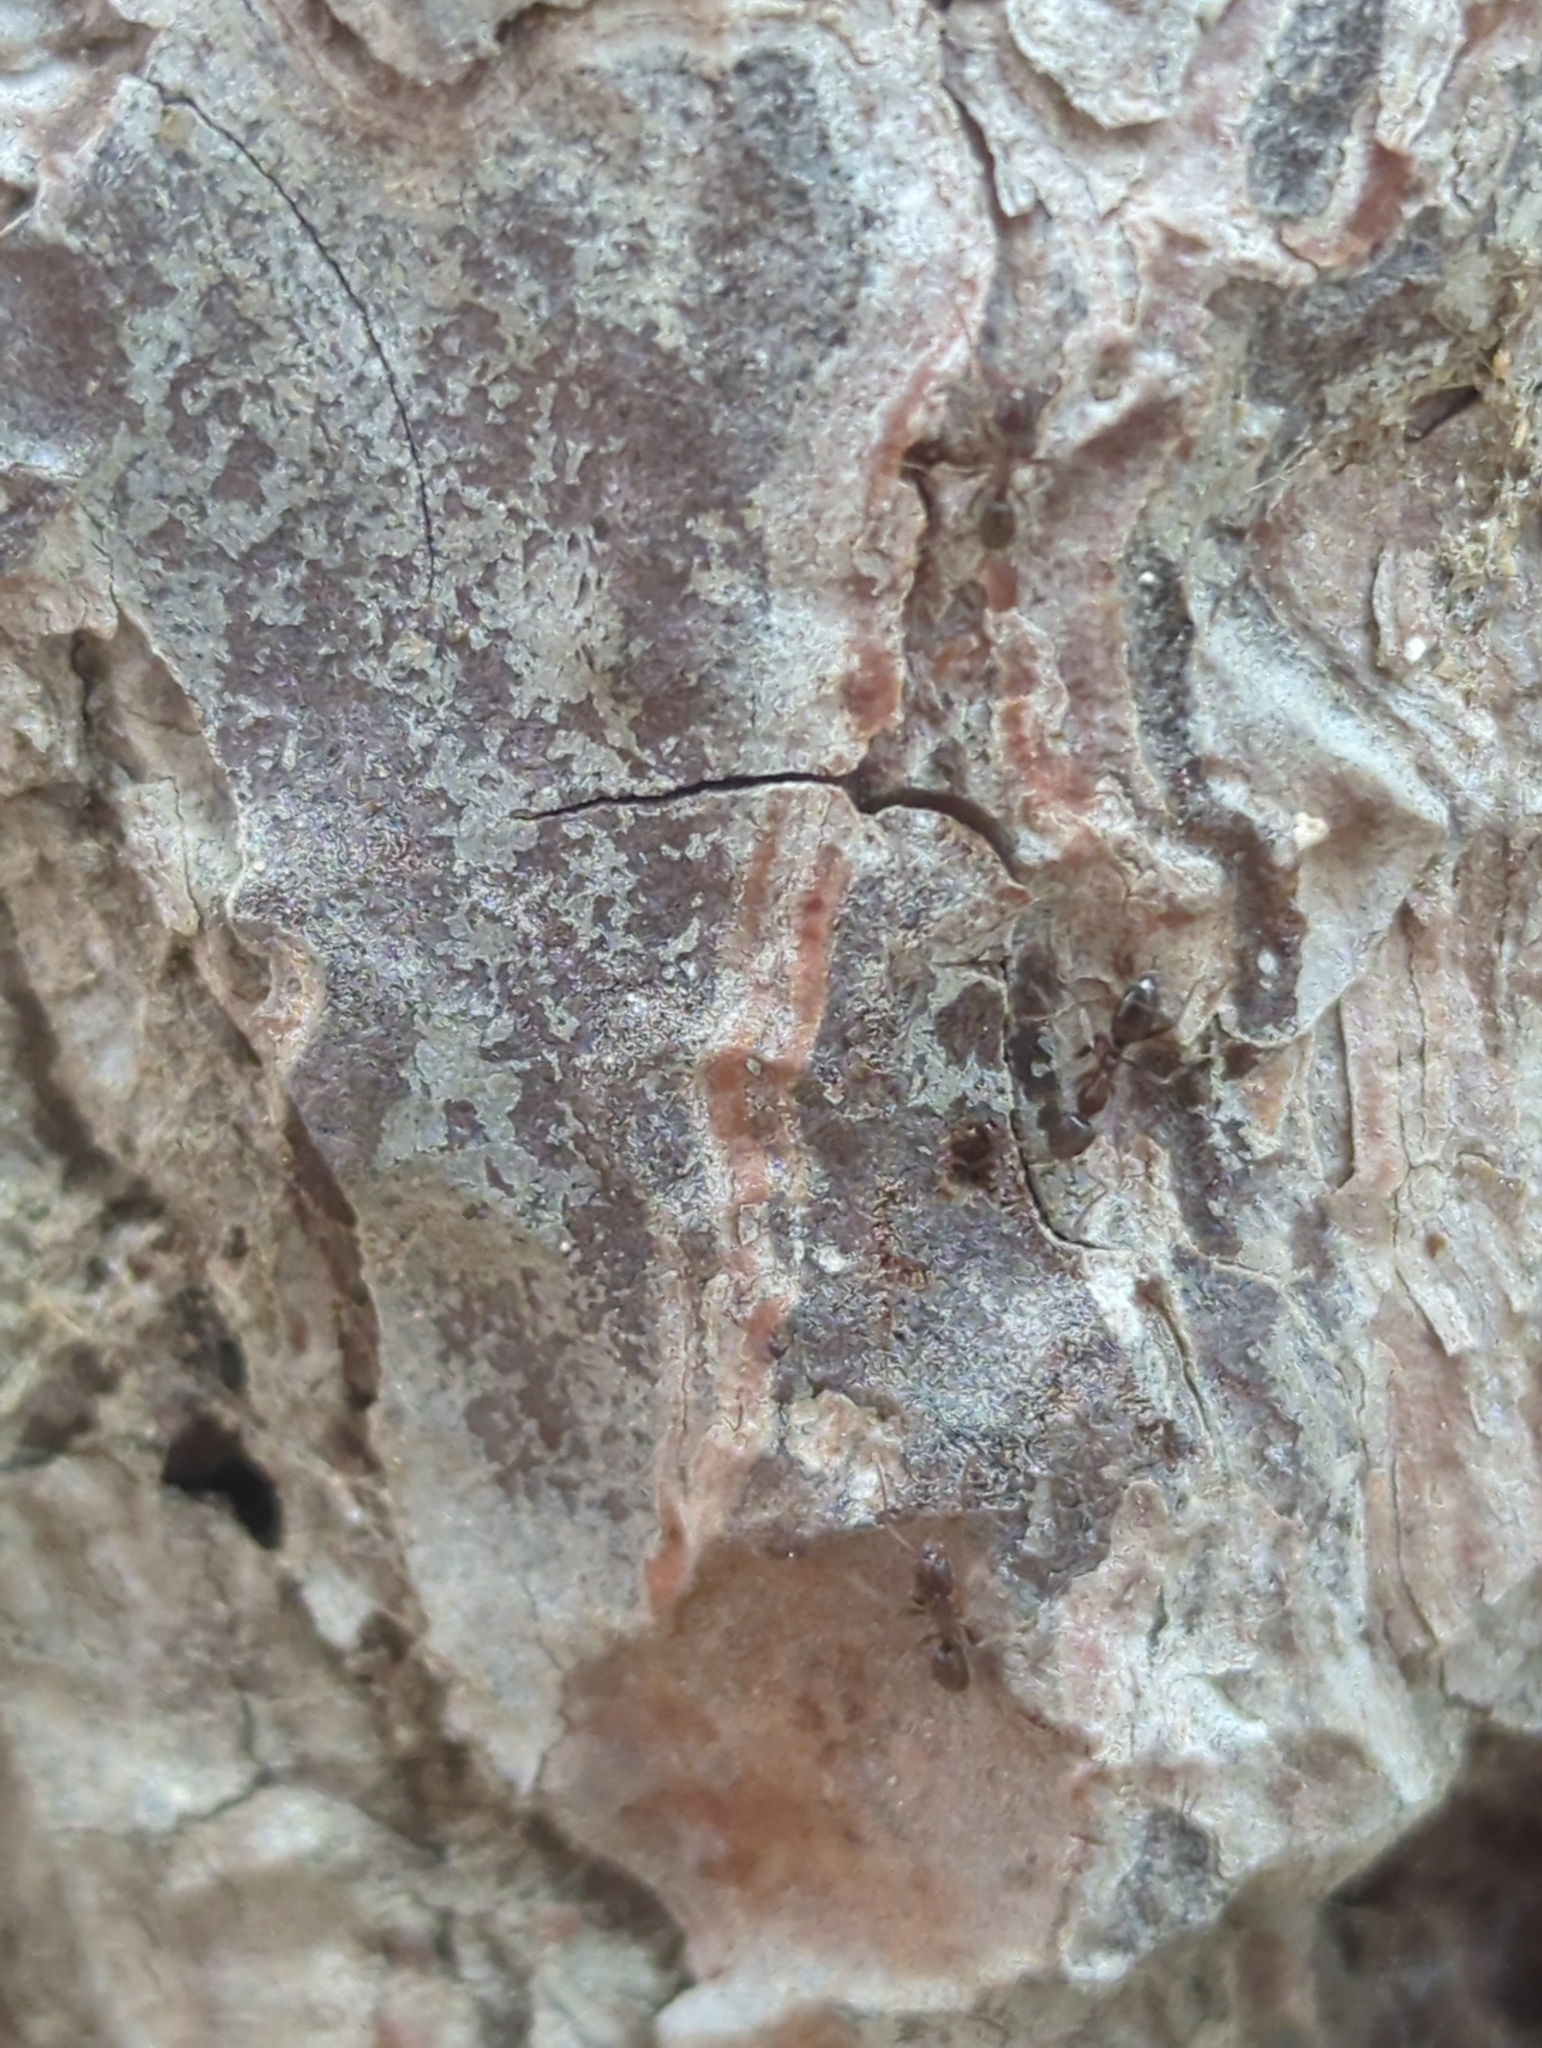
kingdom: Animalia
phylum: Arthropoda
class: Insecta
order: Hymenoptera
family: Formicidae
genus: Linepithema
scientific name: Linepithema humile
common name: Argentine ant
